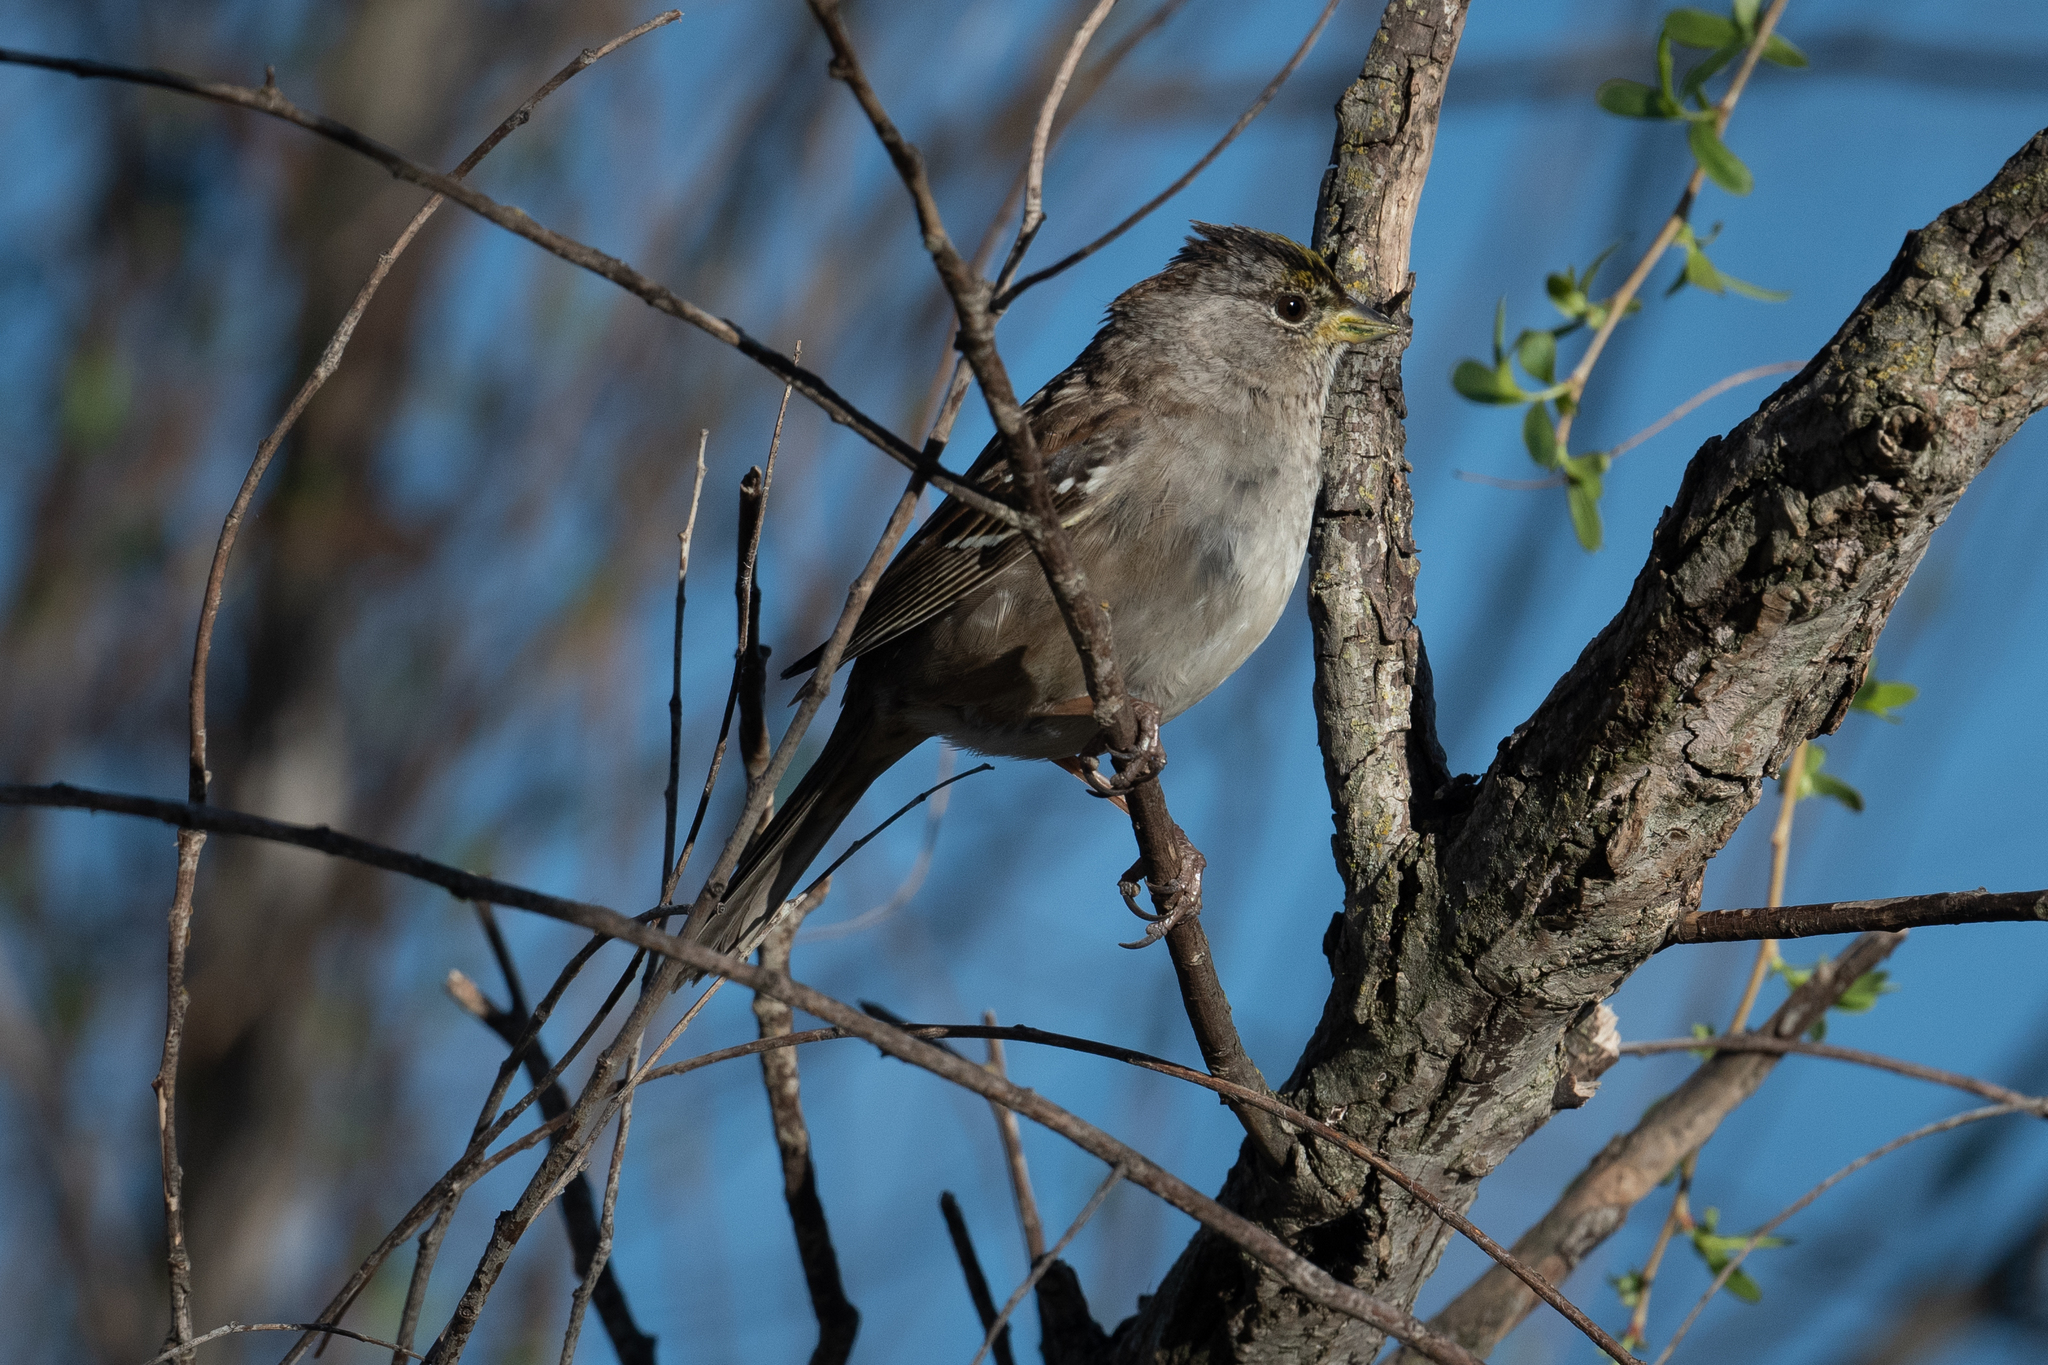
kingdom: Animalia
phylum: Chordata
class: Aves
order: Passeriformes
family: Passerellidae
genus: Zonotrichia
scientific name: Zonotrichia atricapilla
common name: Golden-crowned sparrow
